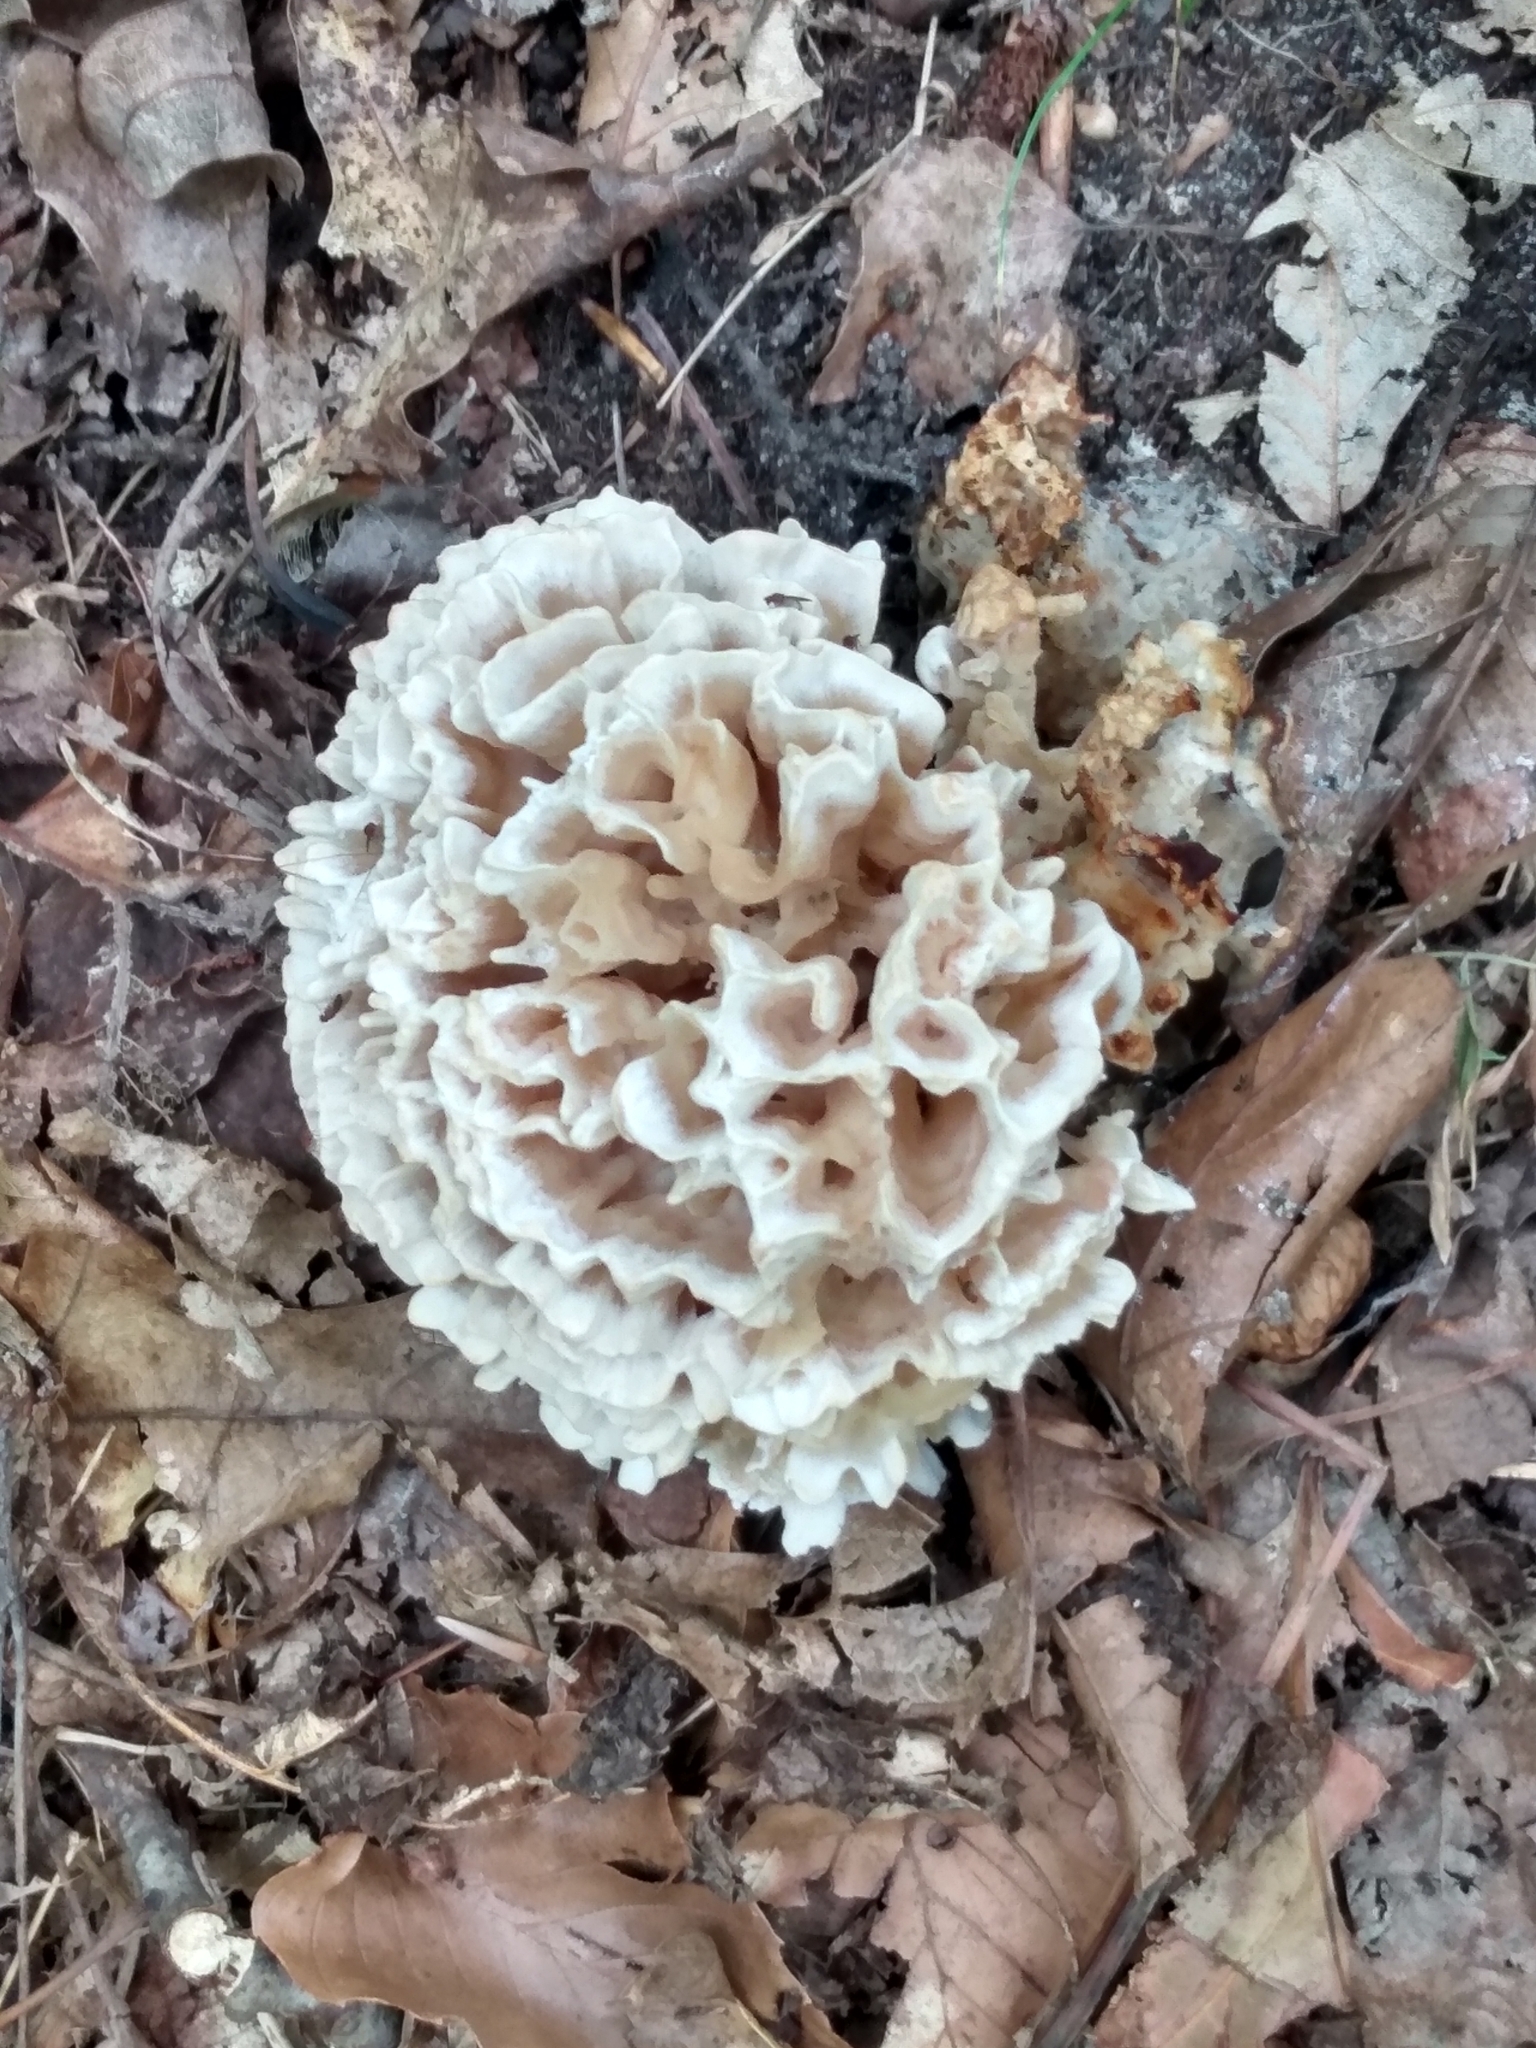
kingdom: Fungi
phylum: Basidiomycota
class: Agaricomycetes
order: Polyporales
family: Sparassidaceae
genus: Sparassis
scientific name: Sparassis spathulata
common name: Eastern cauliflower mushroom
